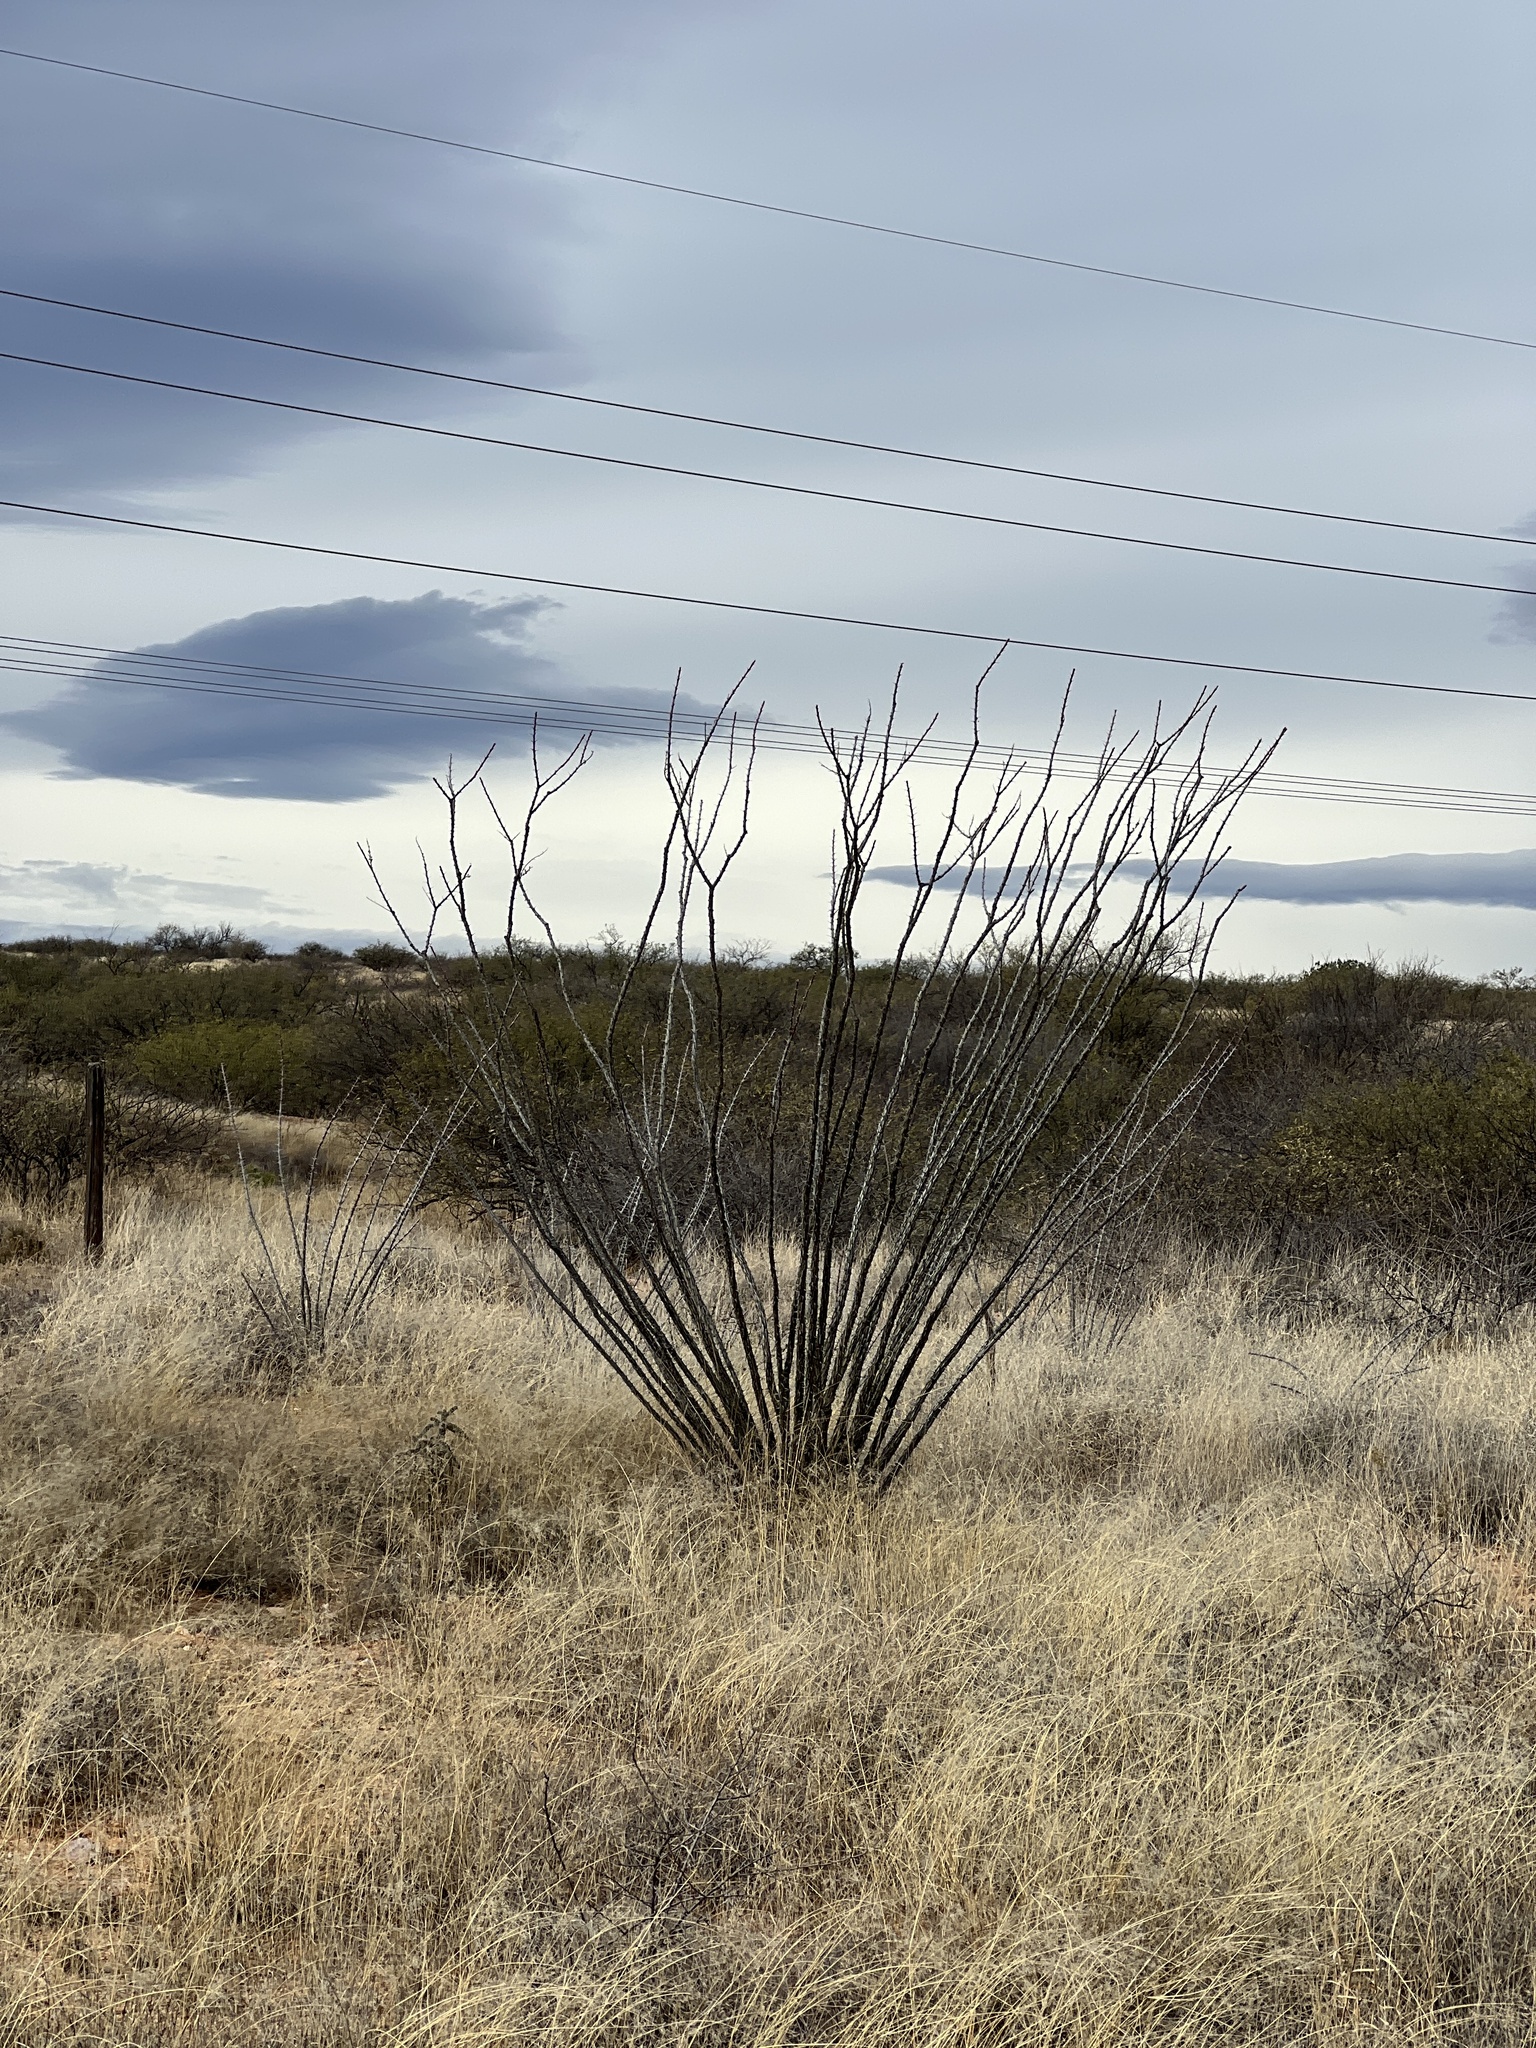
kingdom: Plantae
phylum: Tracheophyta
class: Magnoliopsida
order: Ericales
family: Fouquieriaceae
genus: Fouquieria
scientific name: Fouquieria splendens
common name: Vine-cactus
